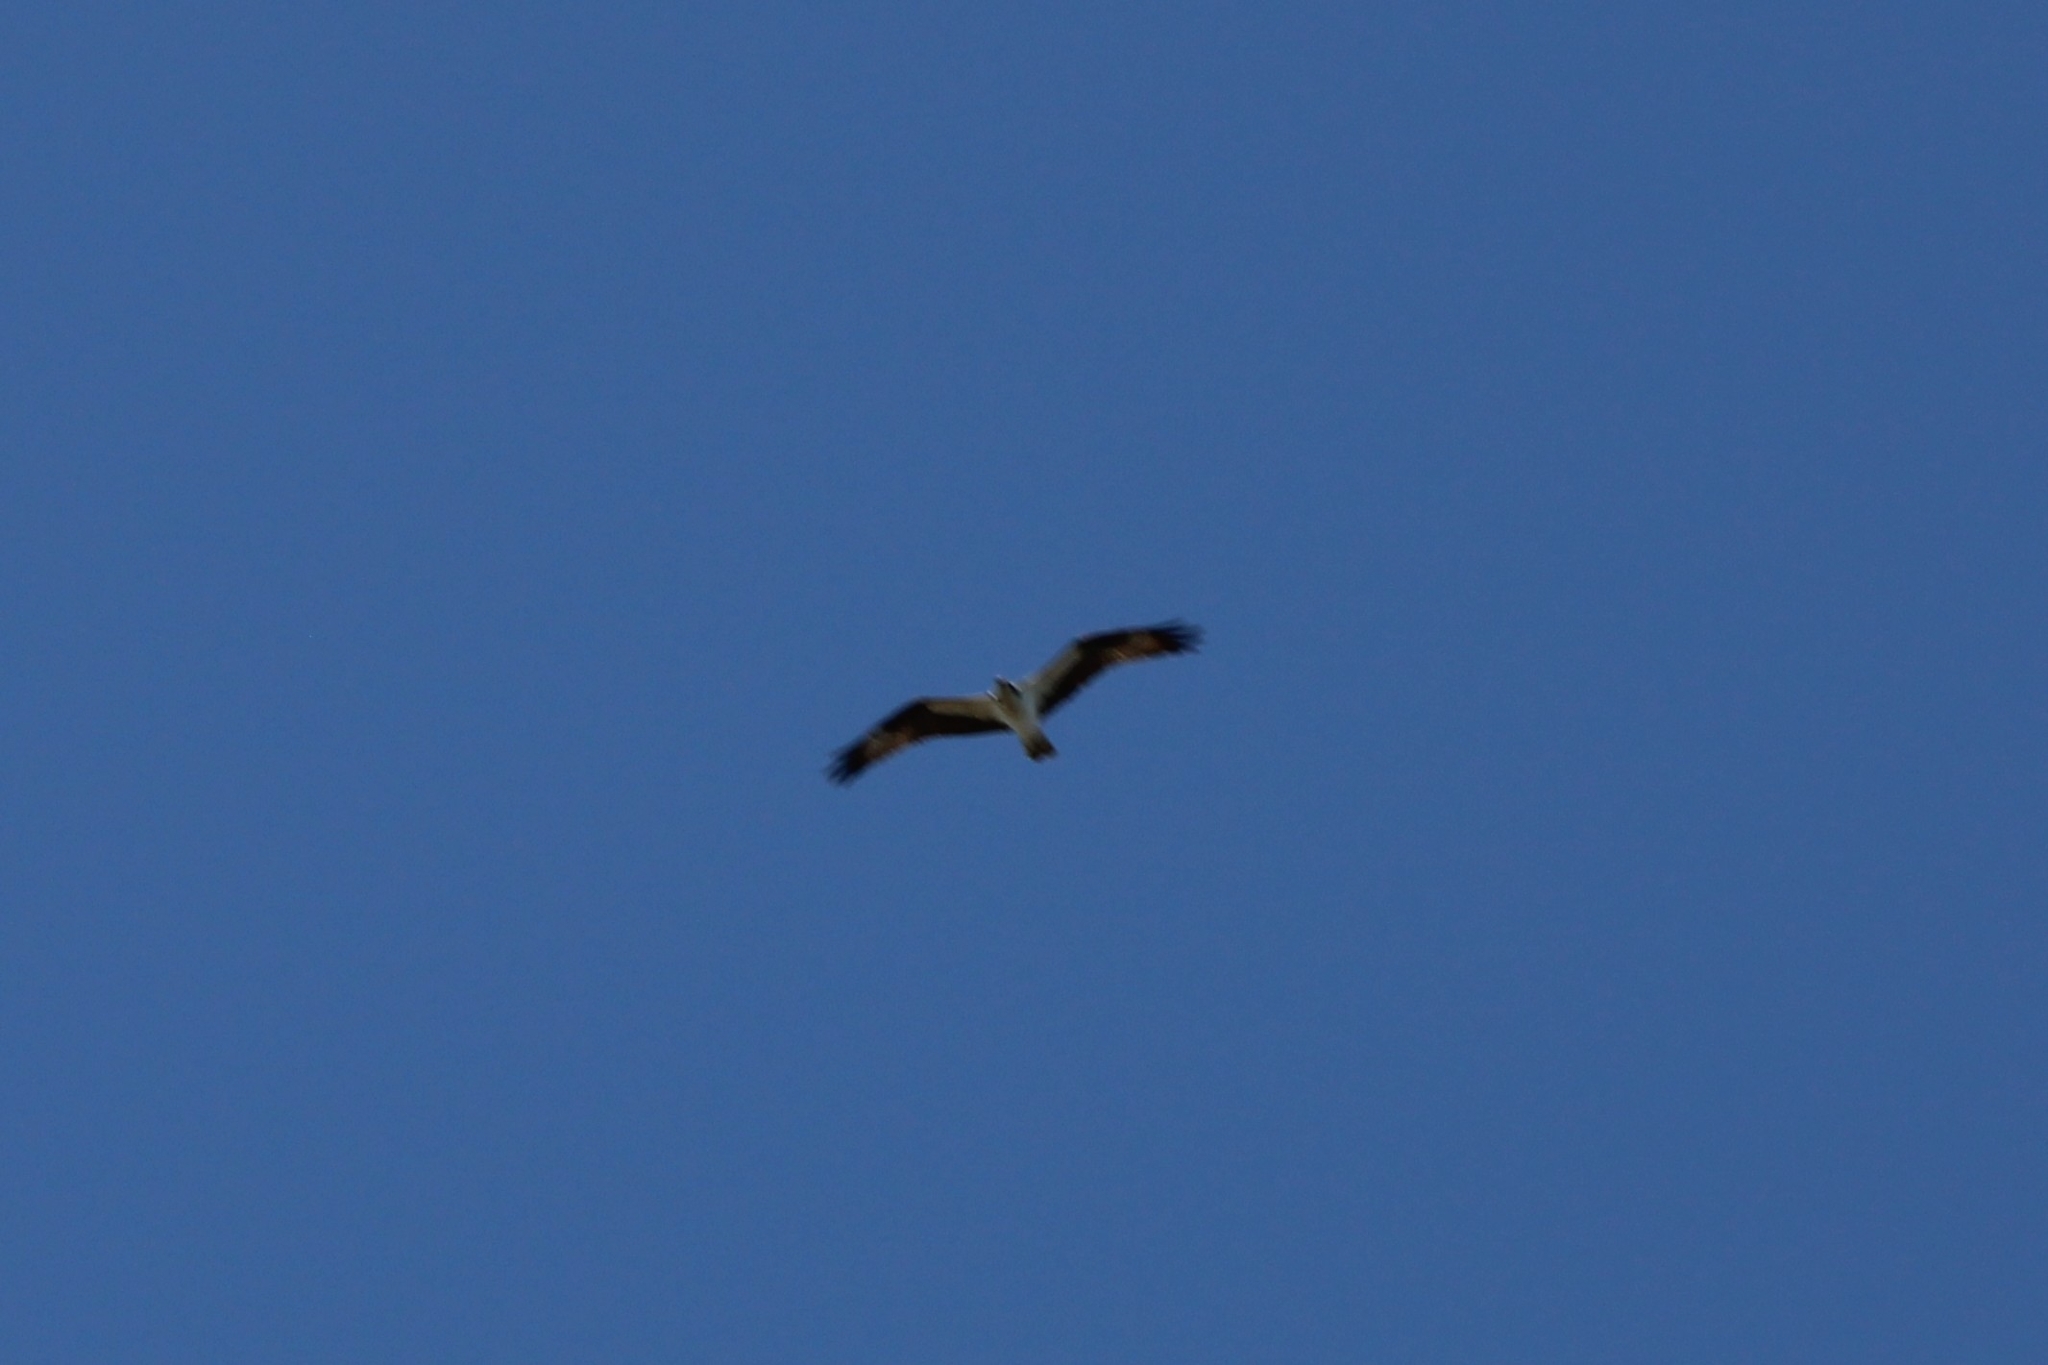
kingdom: Animalia
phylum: Chordata
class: Aves
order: Accipitriformes
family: Pandionidae
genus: Pandion
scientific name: Pandion haliaetus
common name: Osprey
